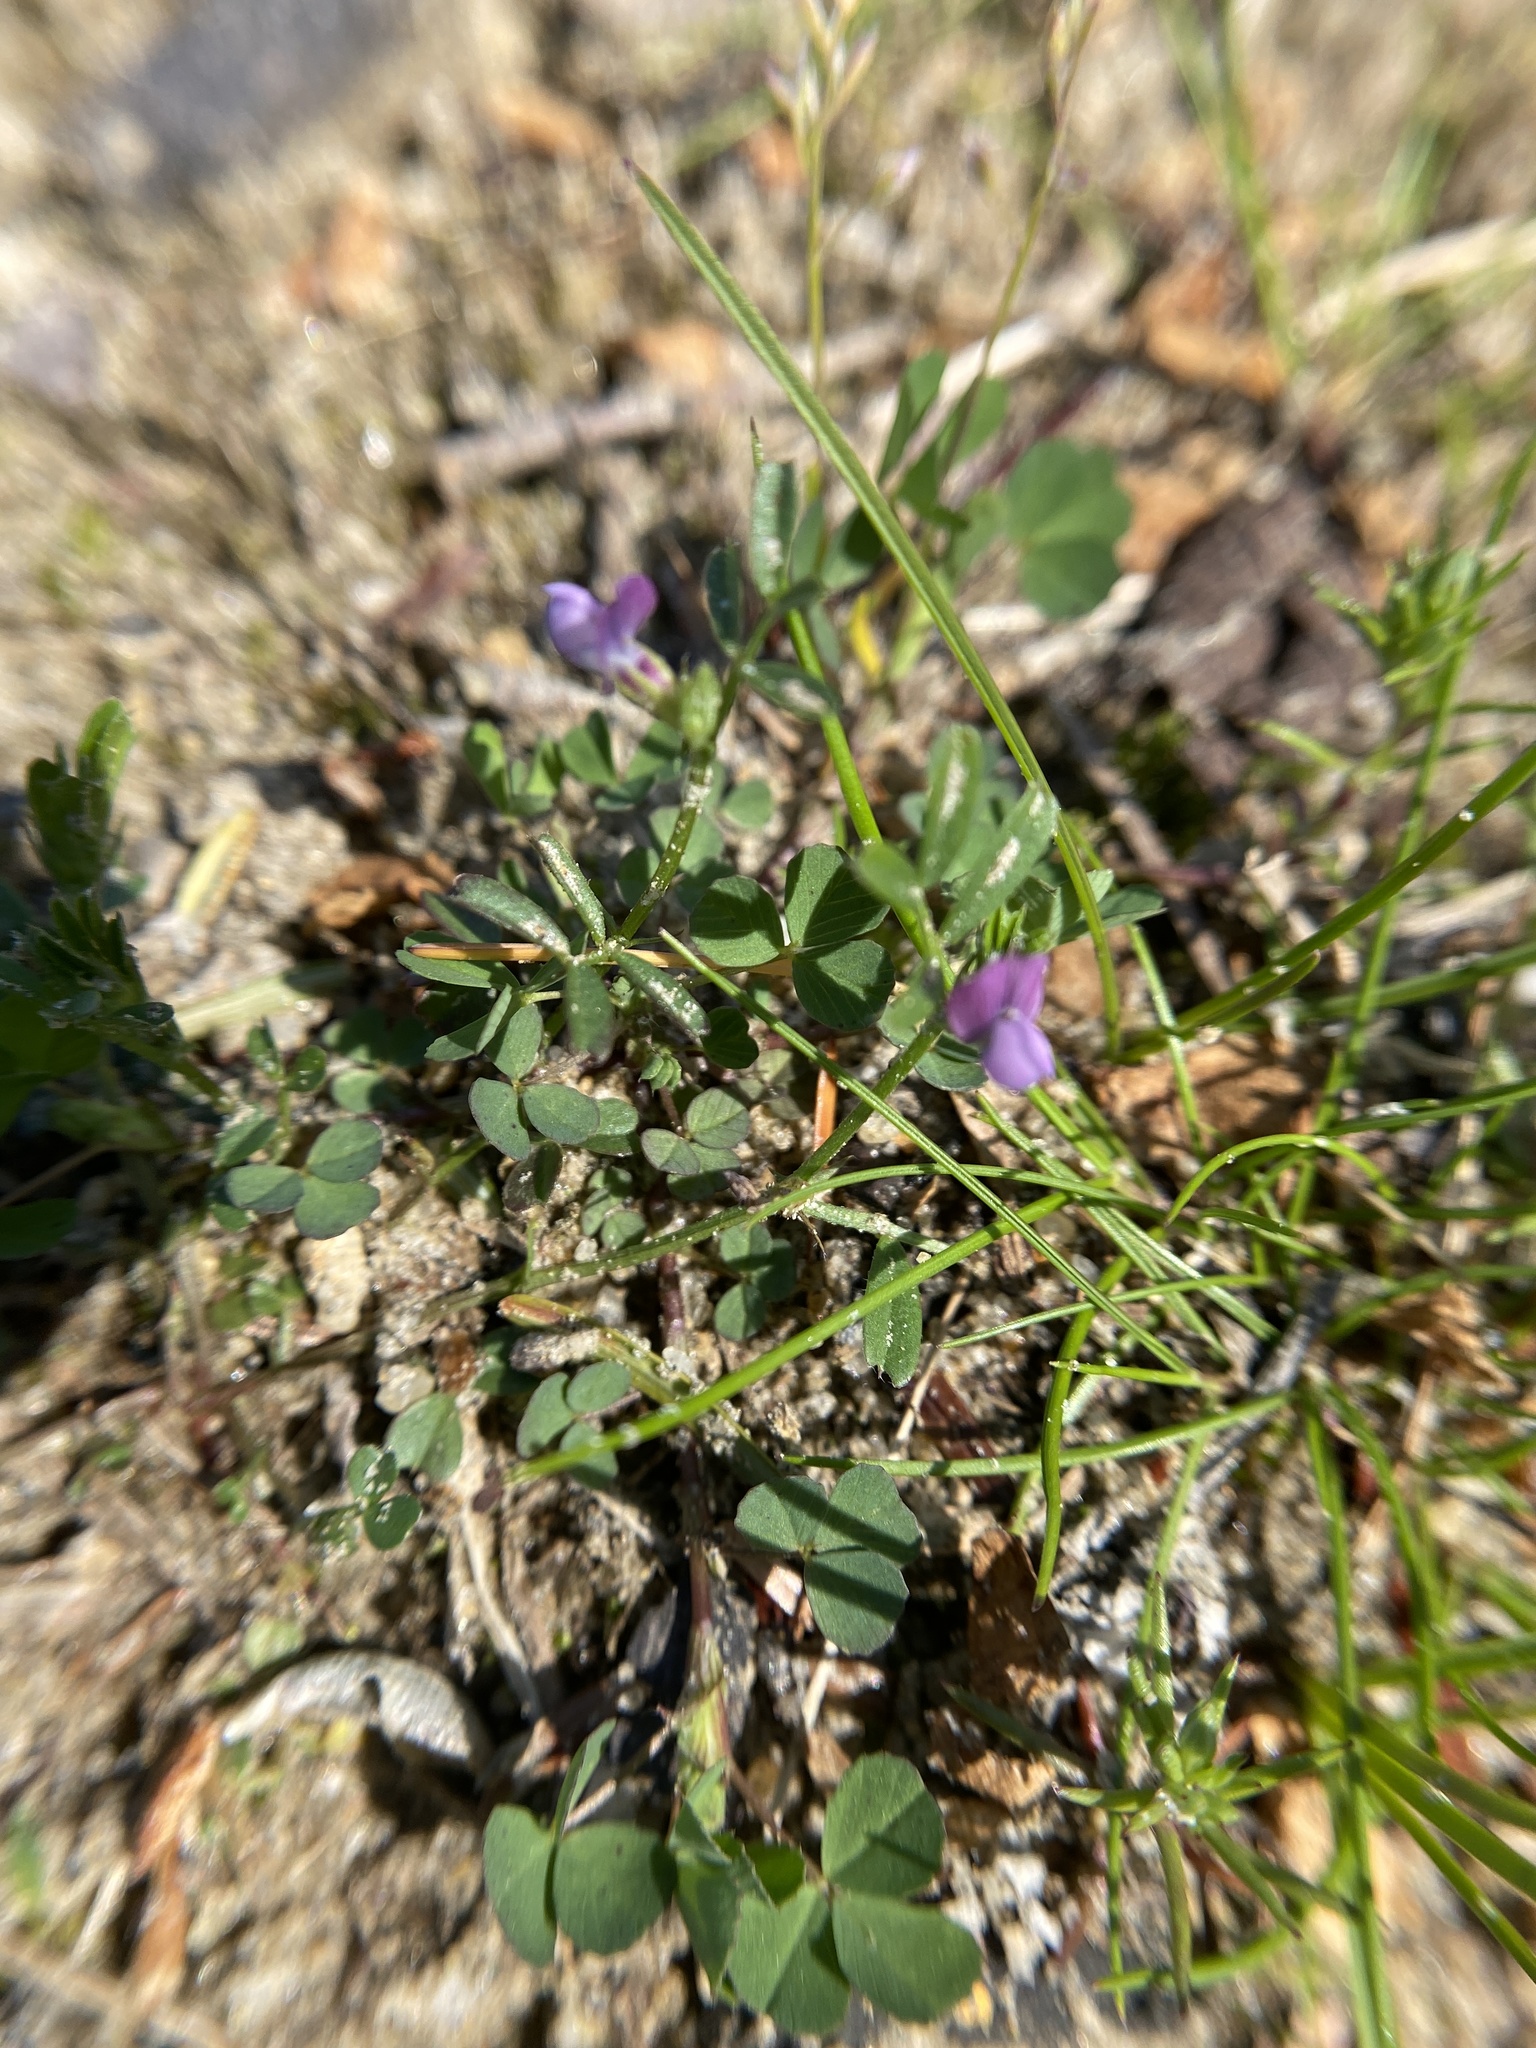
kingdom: Plantae
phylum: Tracheophyta
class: Magnoliopsida
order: Fabales
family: Fabaceae
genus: Vicia
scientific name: Vicia lathyroides
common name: Spring vetch
